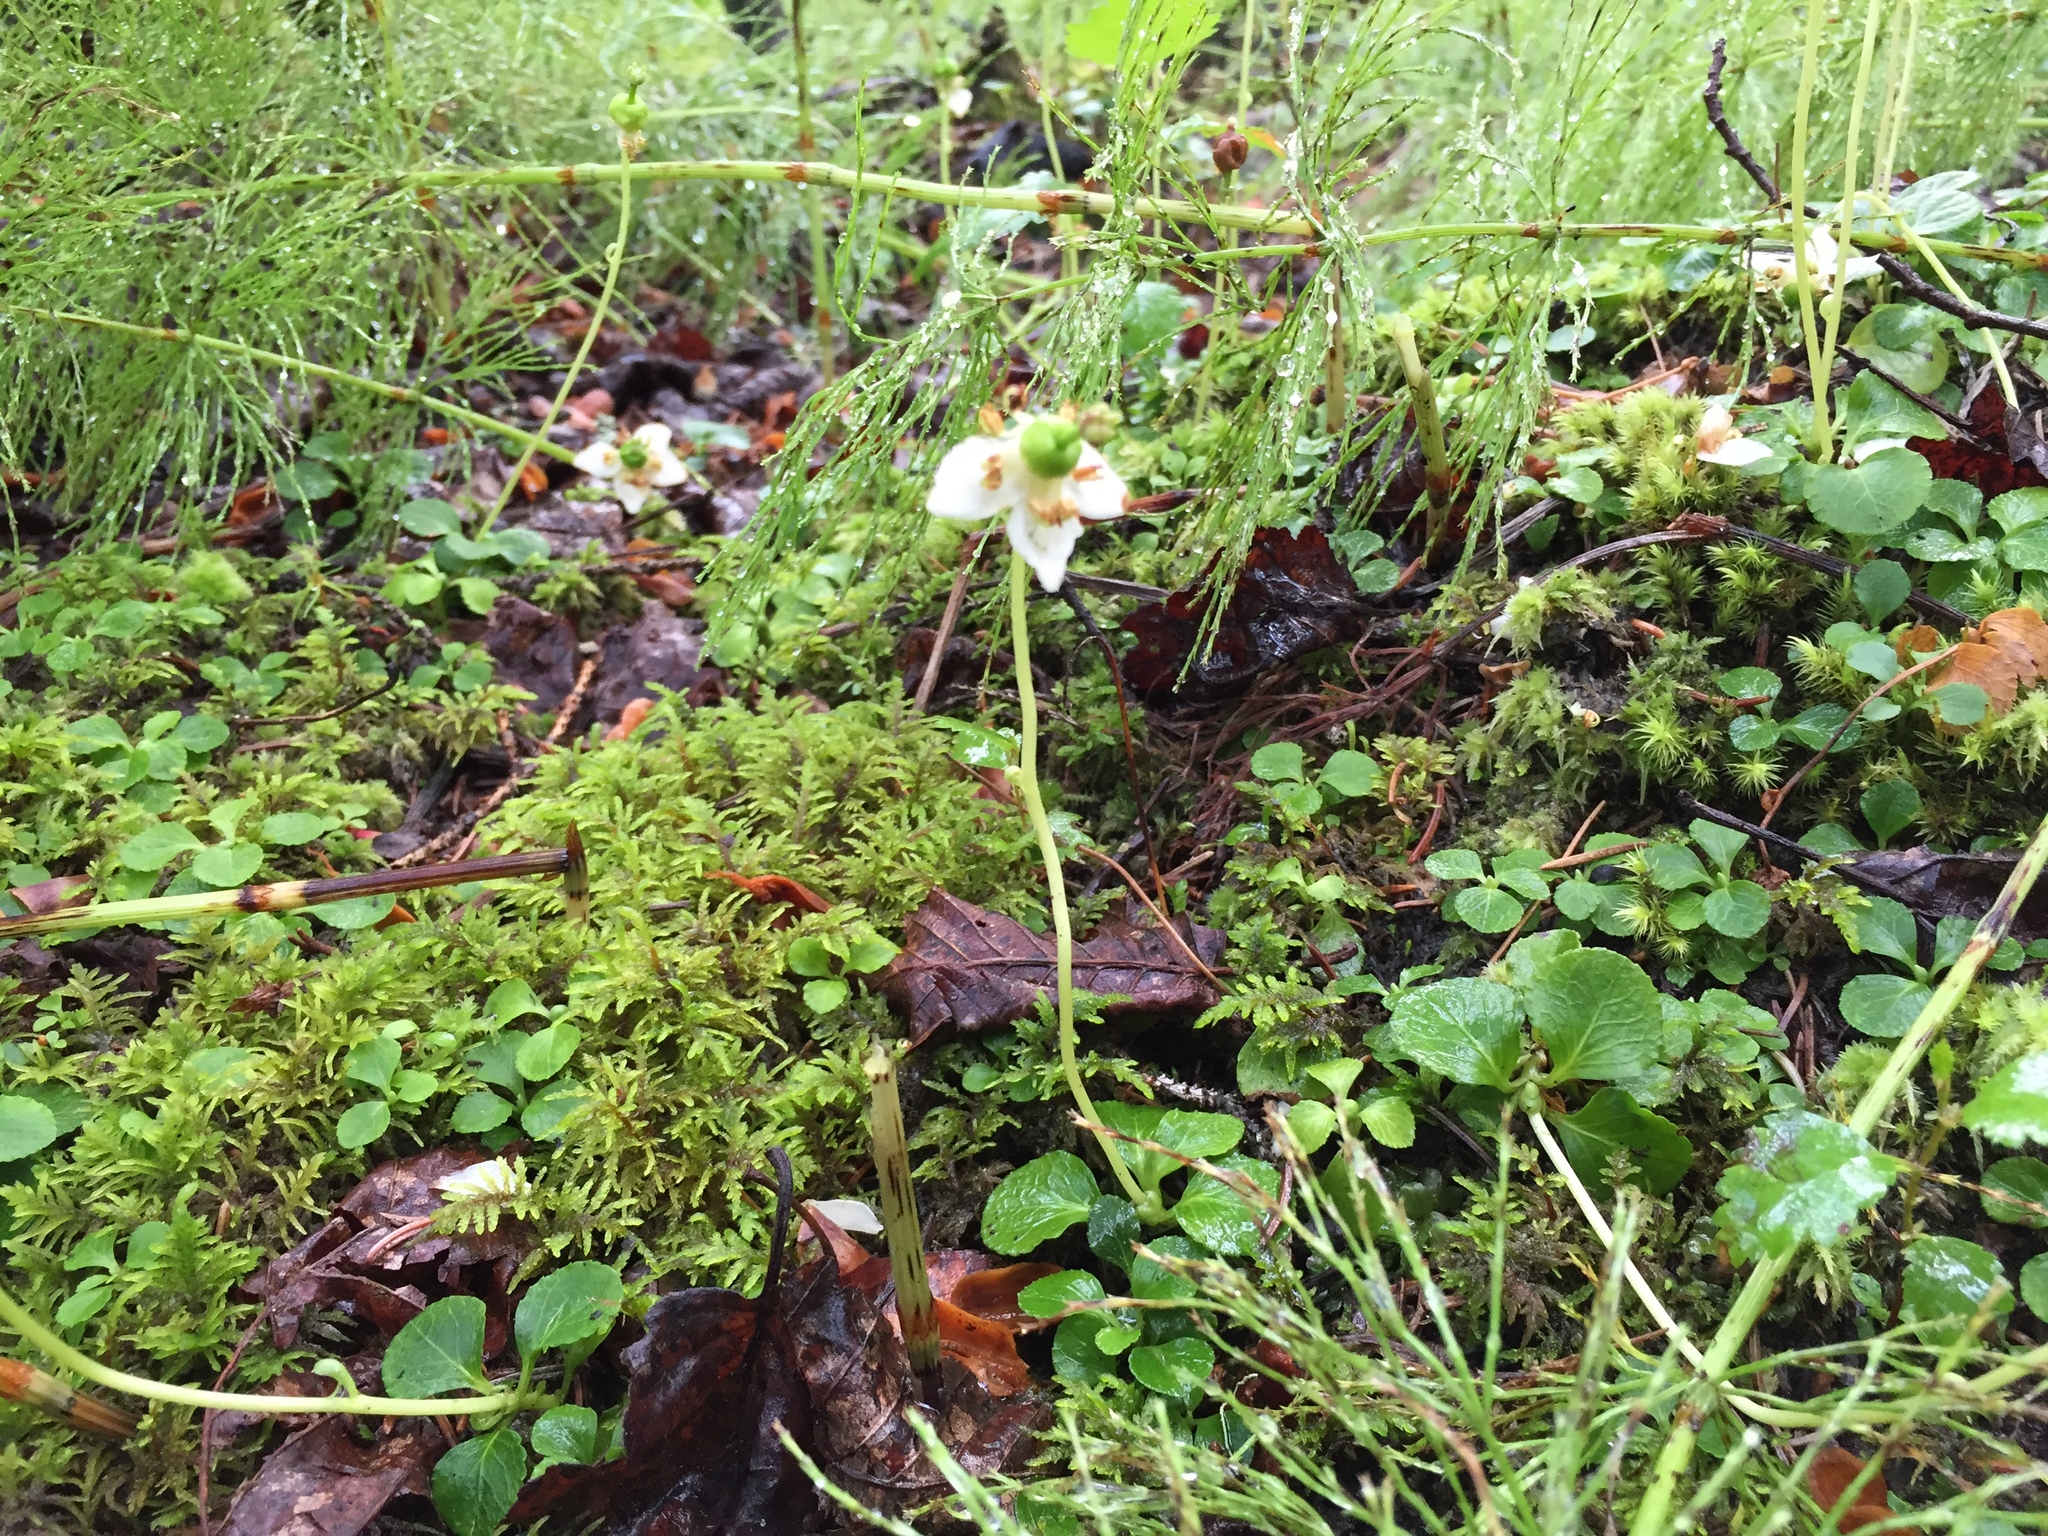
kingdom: Plantae
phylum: Tracheophyta
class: Magnoliopsida
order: Ericales
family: Ericaceae
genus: Moneses
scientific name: Moneses uniflora
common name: One-flowered wintergreen
